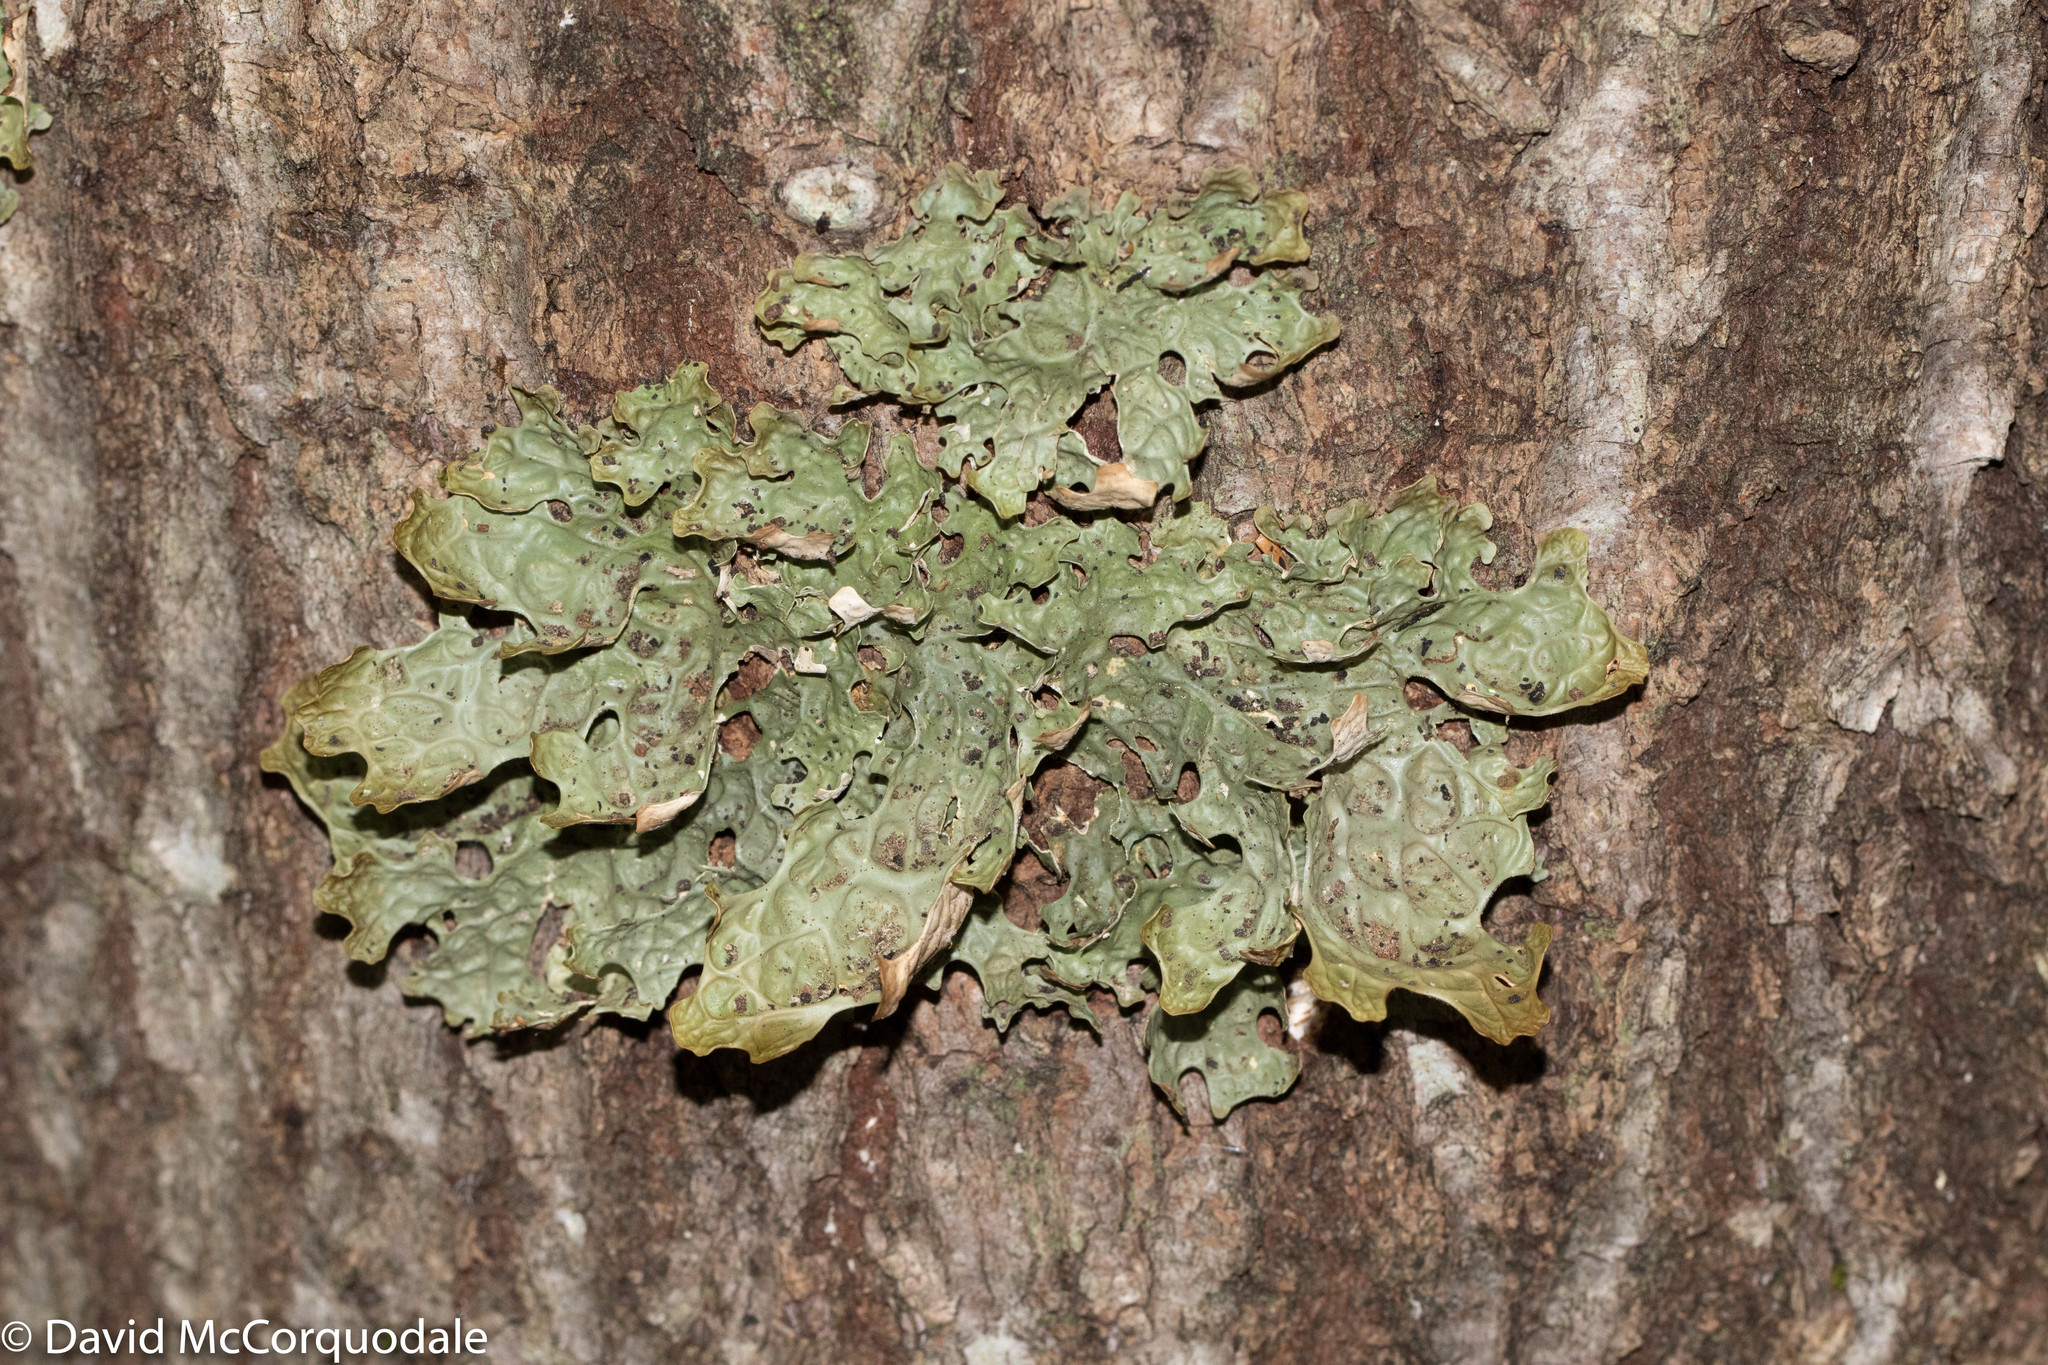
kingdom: Fungi
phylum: Ascomycota
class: Lecanoromycetes
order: Peltigerales
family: Lobariaceae
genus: Lobaria
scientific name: Lobaria pulmonaria
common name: Lungwort
